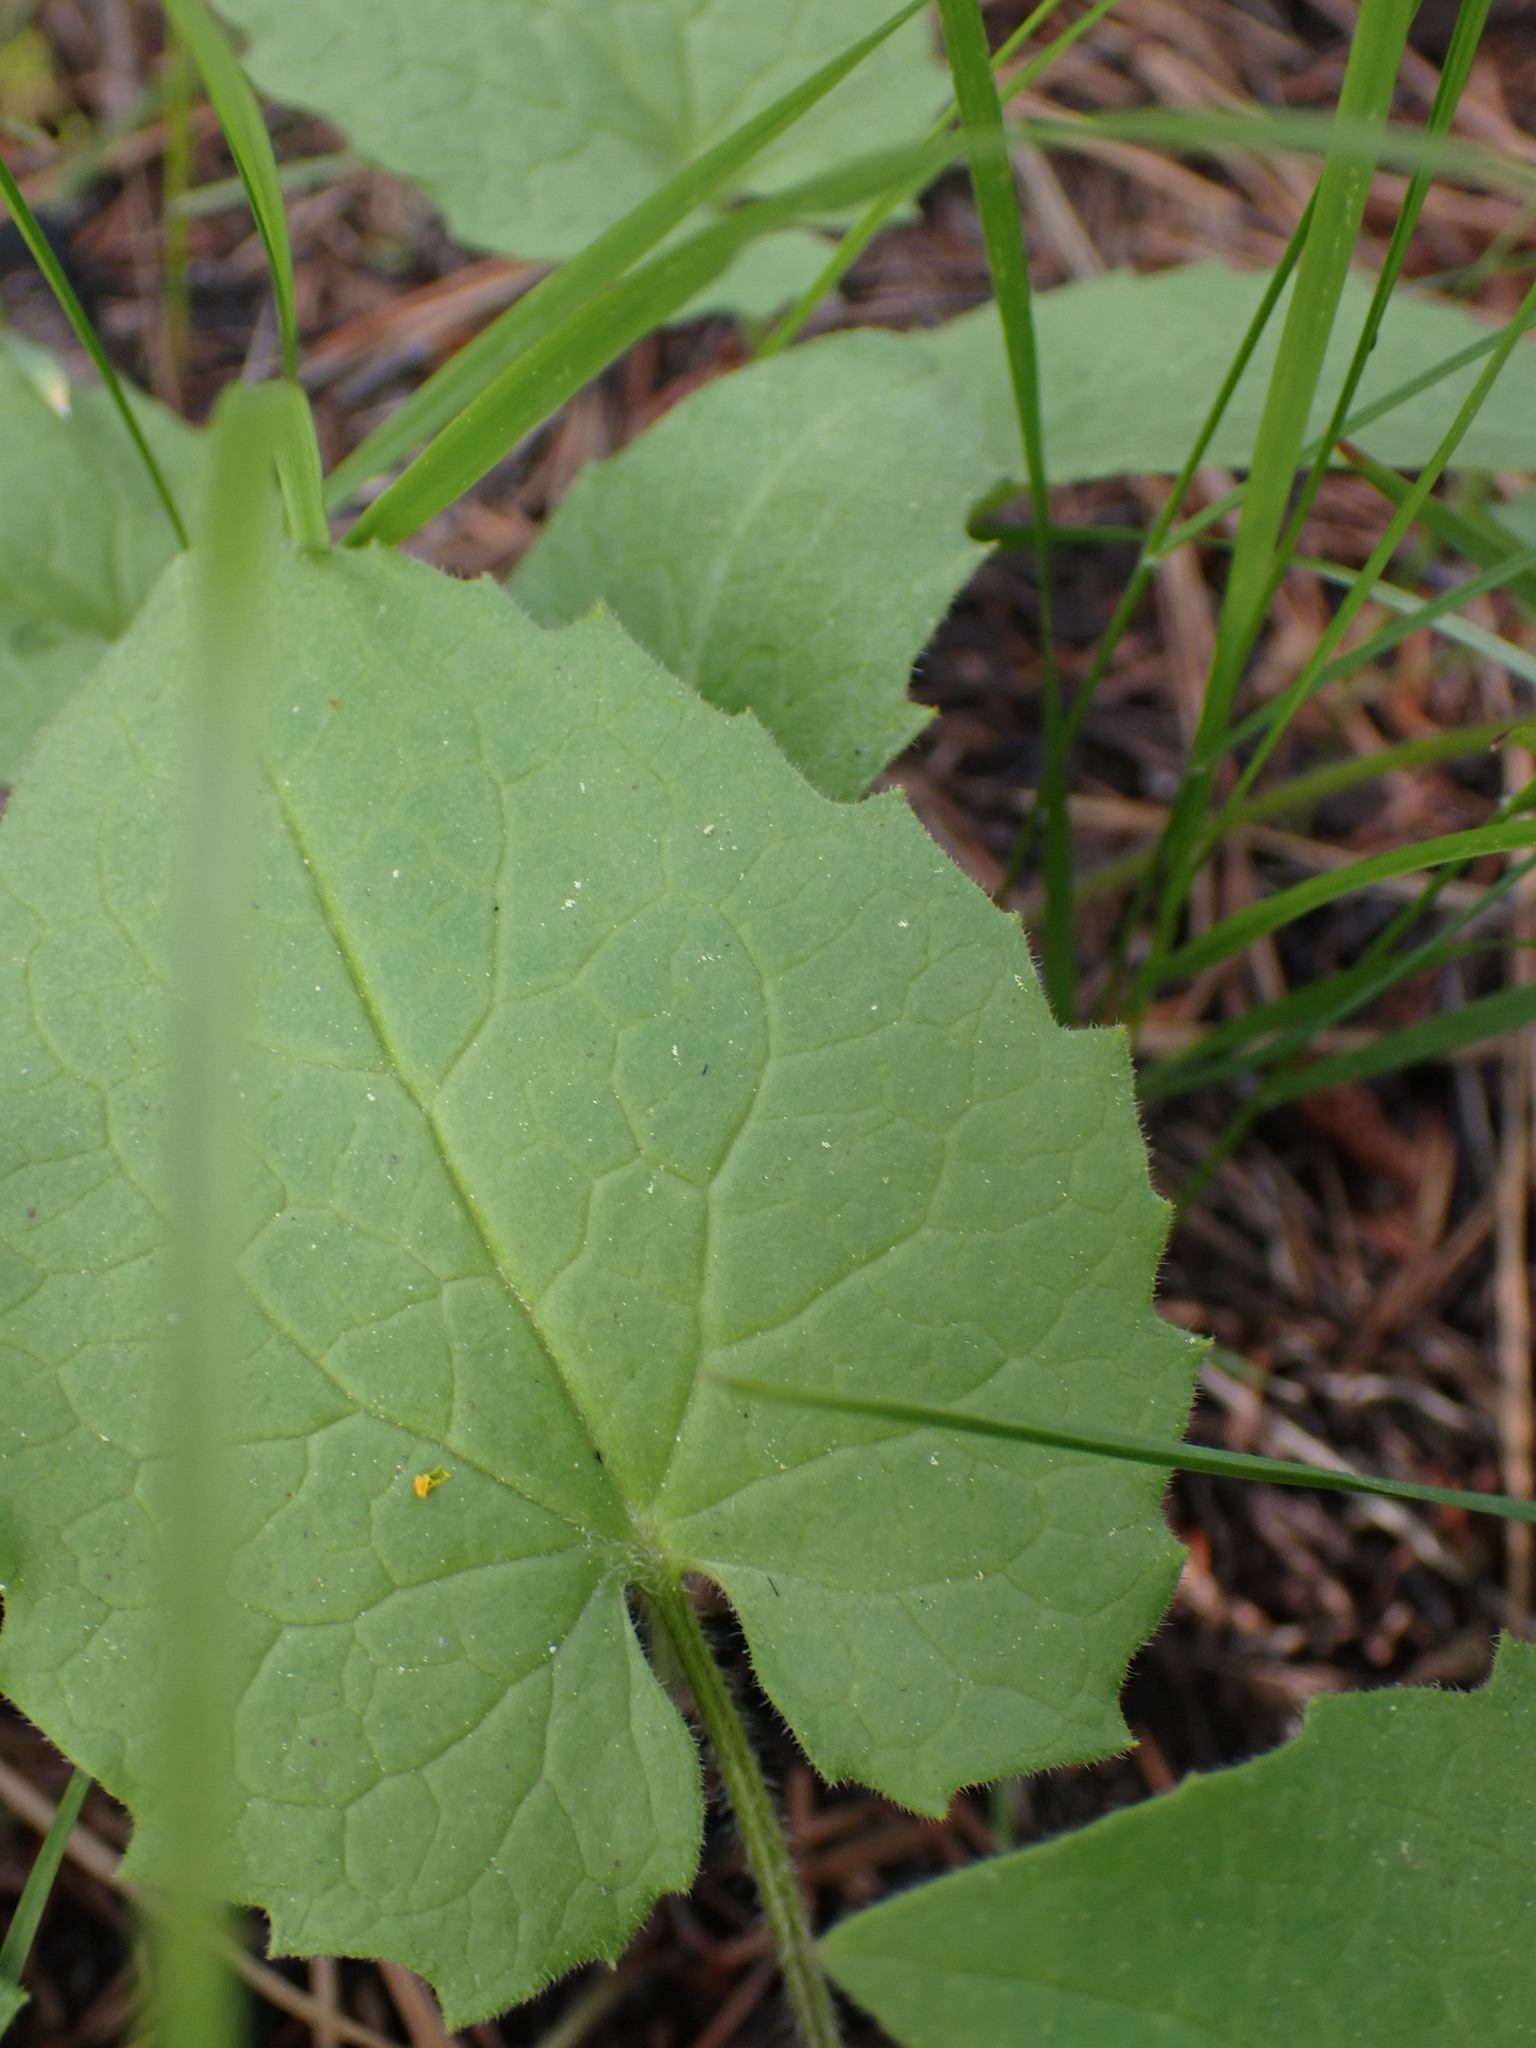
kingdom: Plantae
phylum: Tracheophyta
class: Magnoliopsida
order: Asterales
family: Asteraceae
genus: Arnica
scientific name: Arnica cordifolia
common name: Heart-leaf arnica
